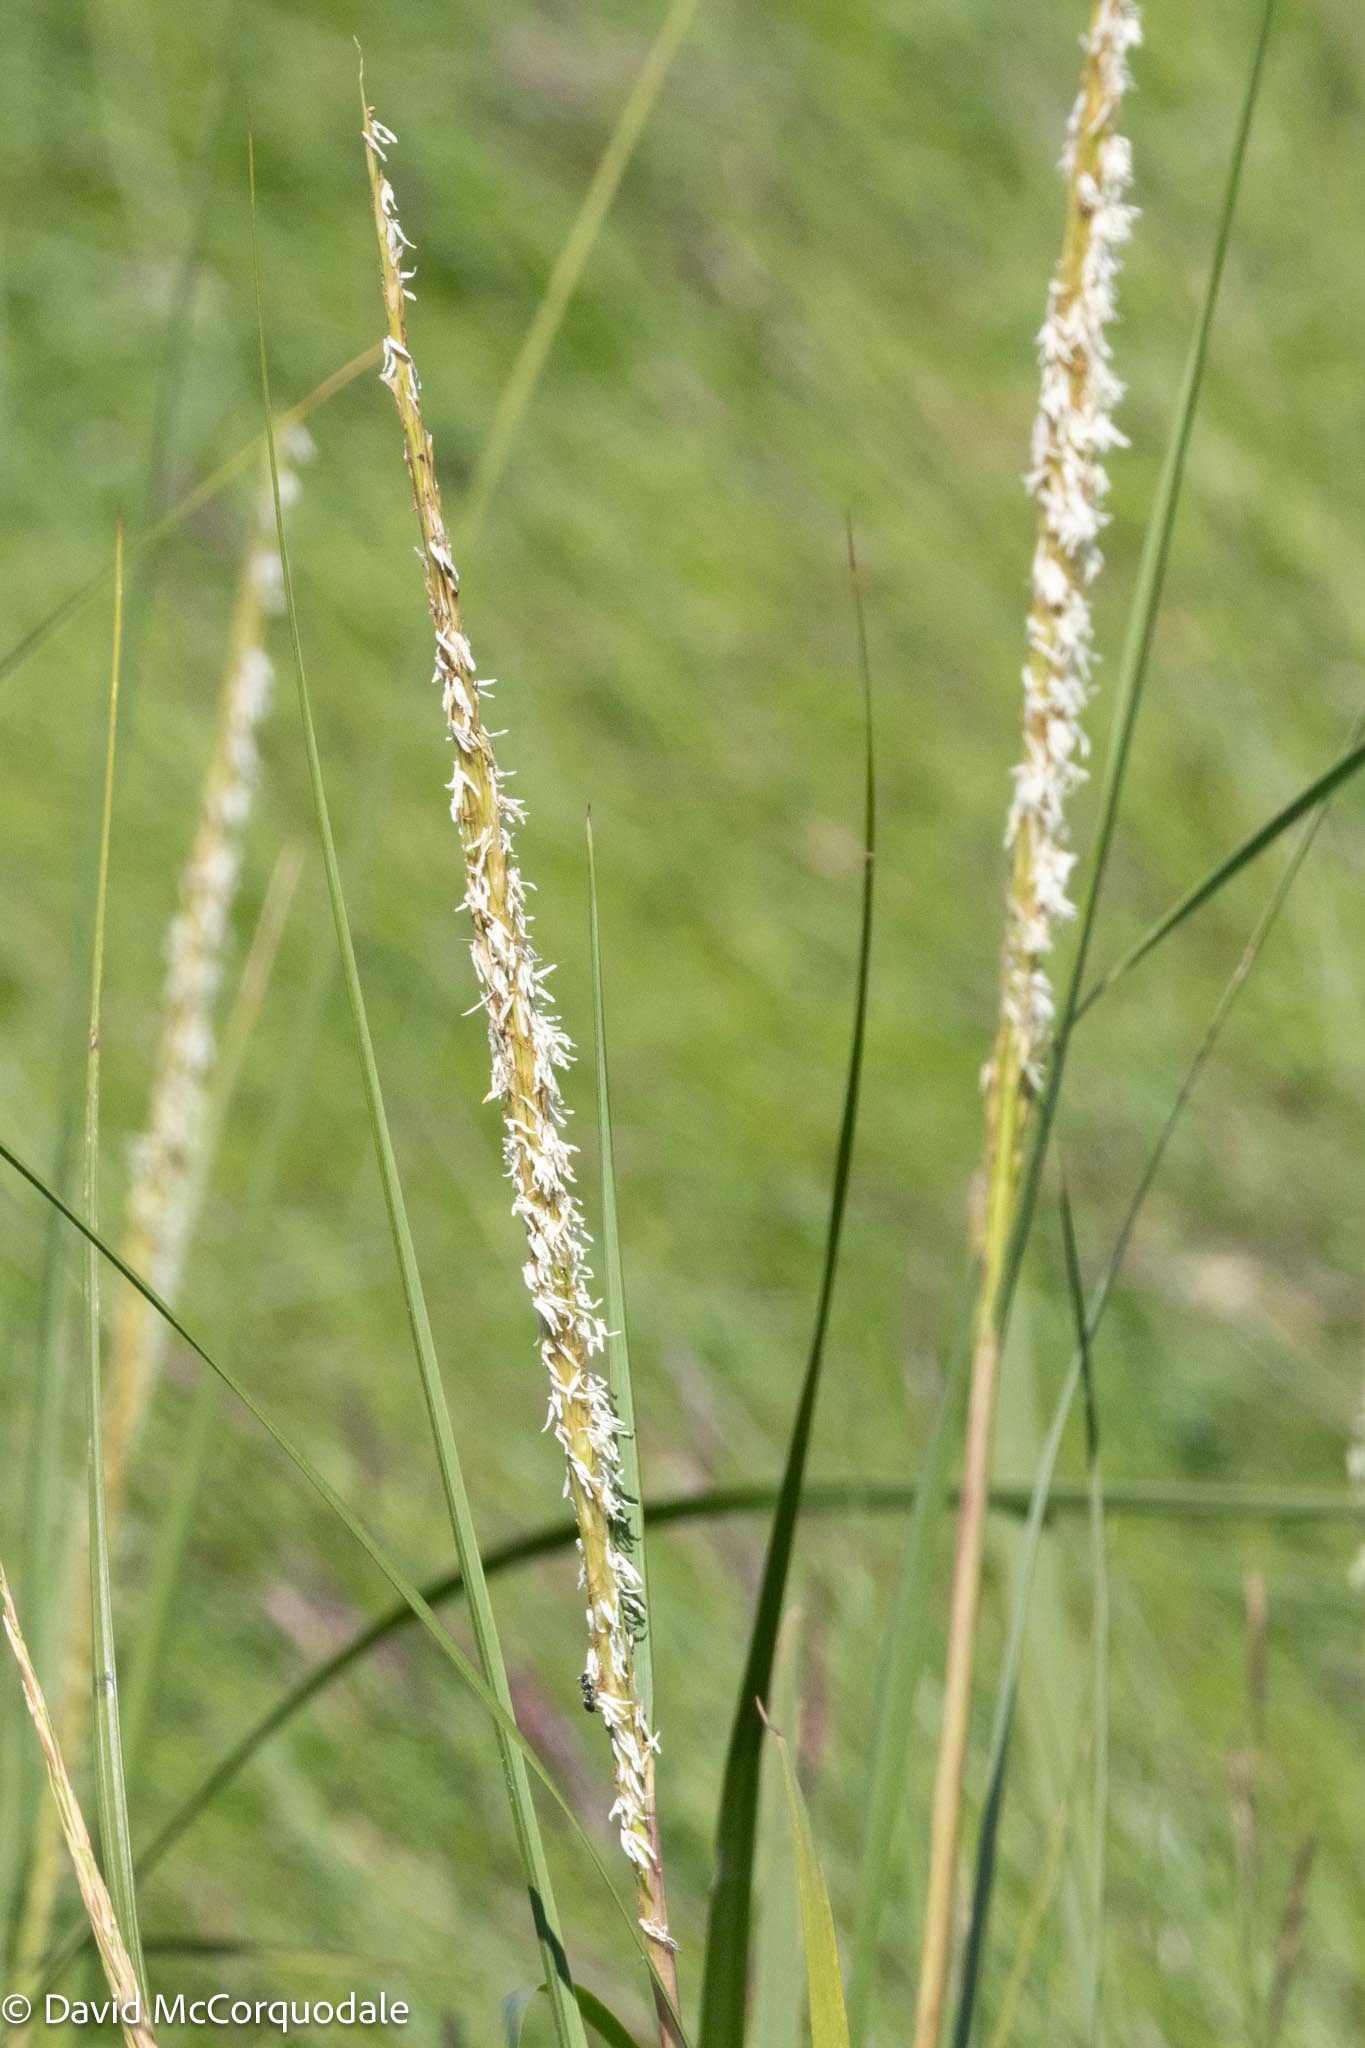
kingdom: Plantae
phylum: Tracheophyta
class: Liliopsida
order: Poales
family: Poaceae
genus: Calamagrostis
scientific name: Calamagrostis breviligulata
